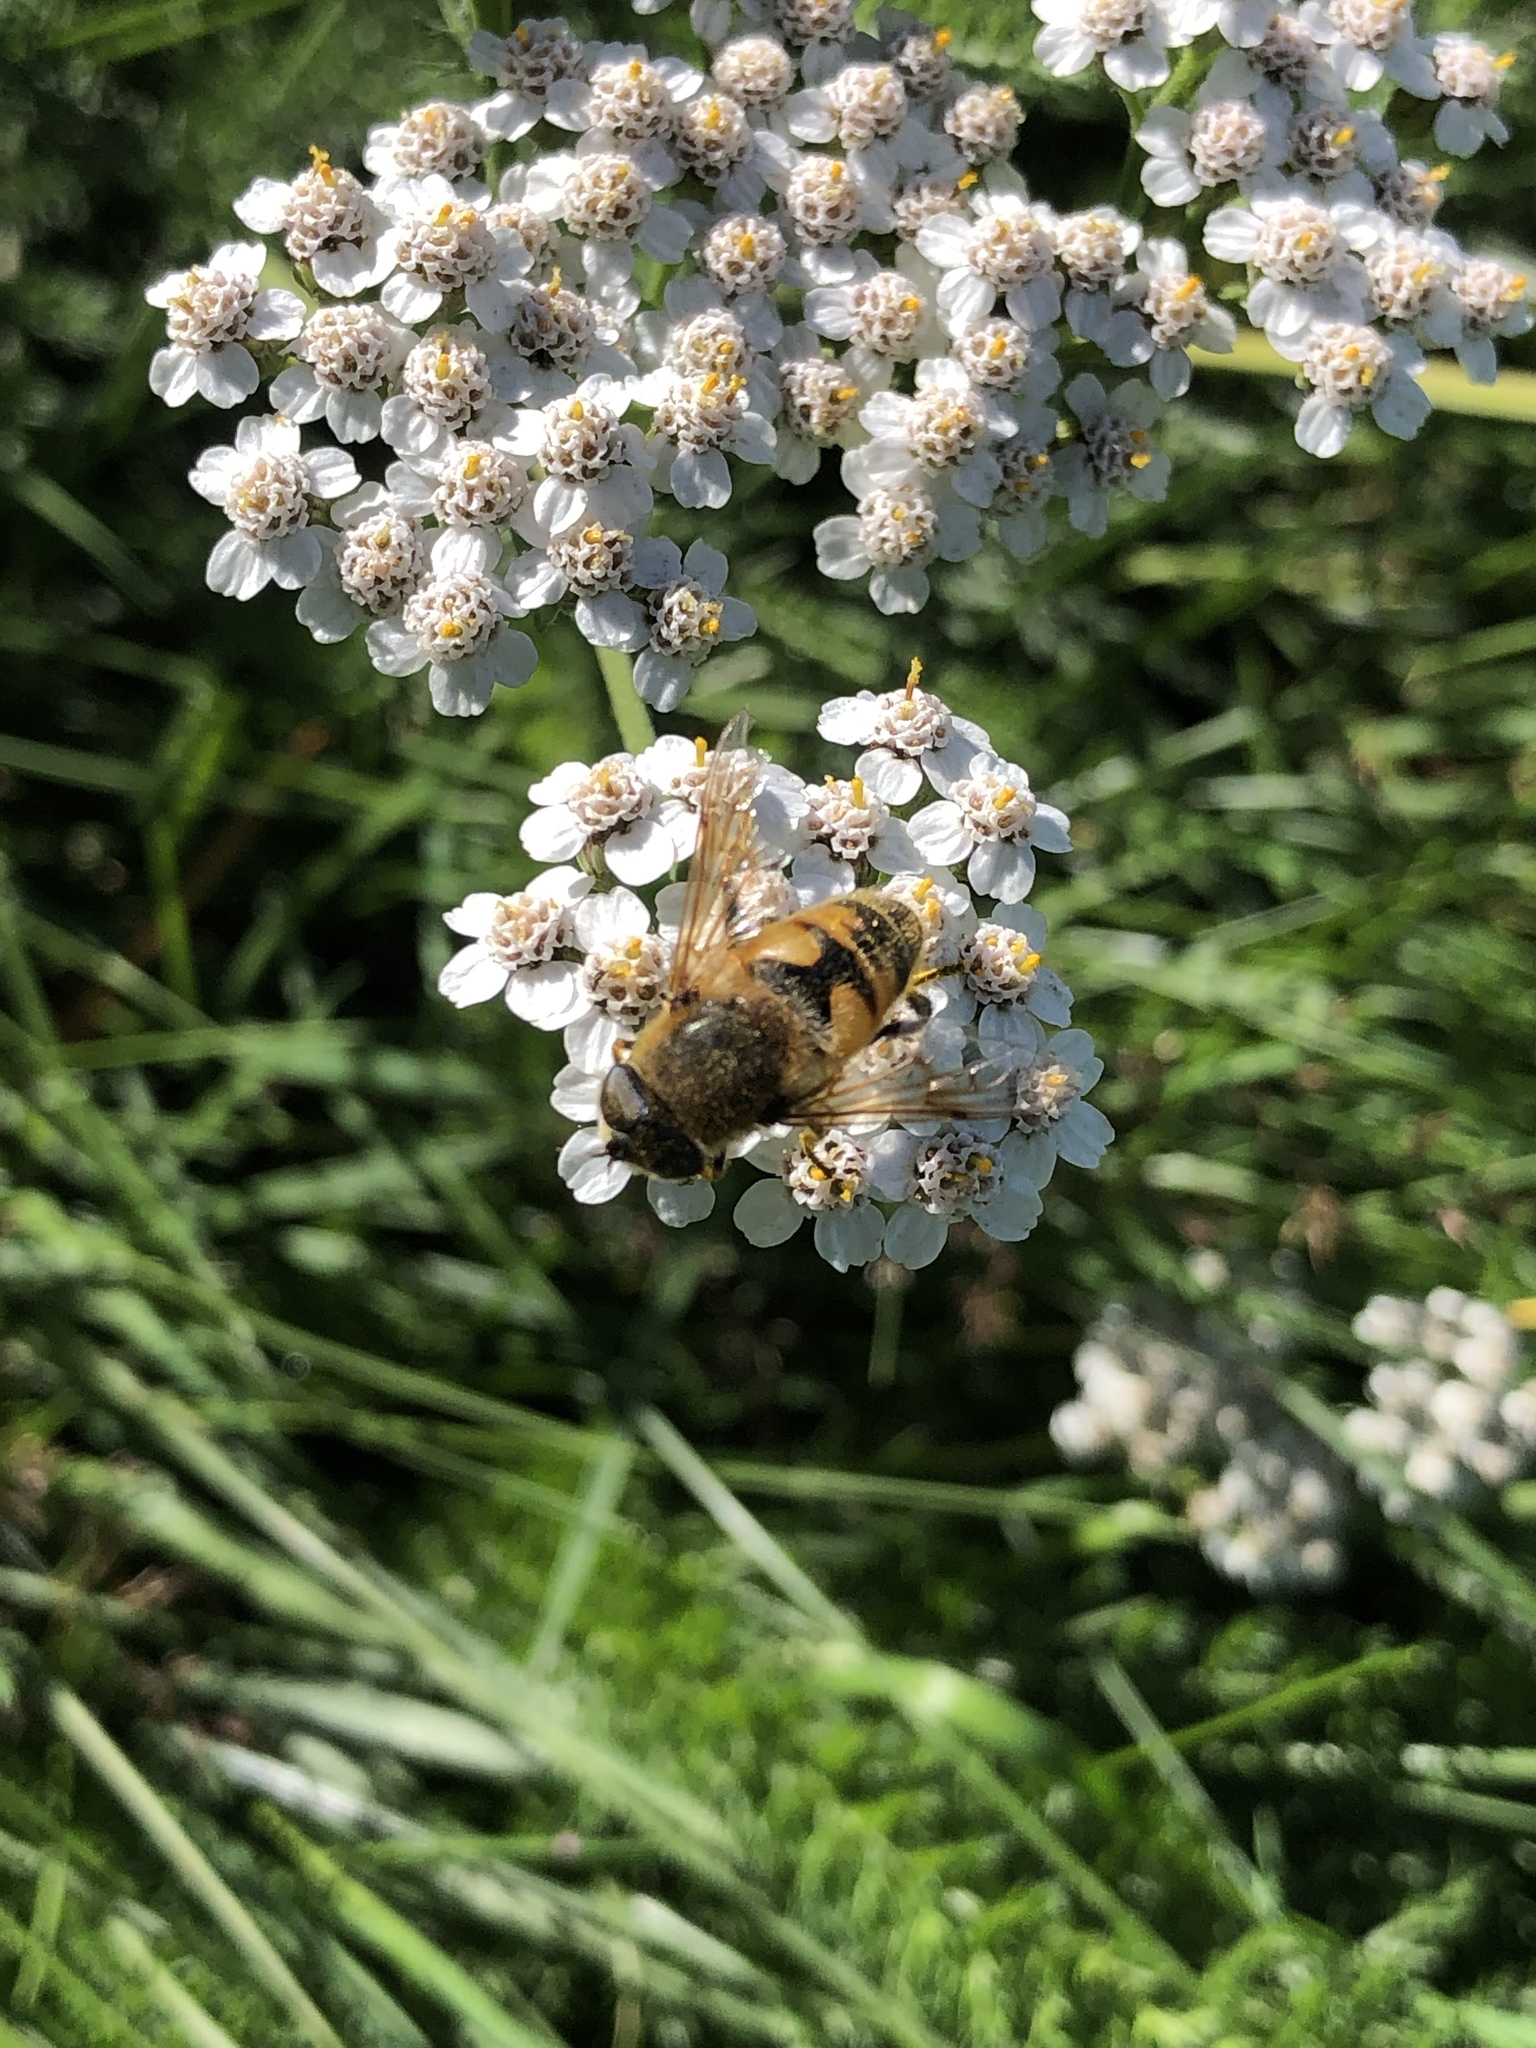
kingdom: Animalia
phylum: Arthropoda
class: Insecta
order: Diptera
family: Syrphidae
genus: Eristalis
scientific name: Eristalis tenax
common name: Drone fly
